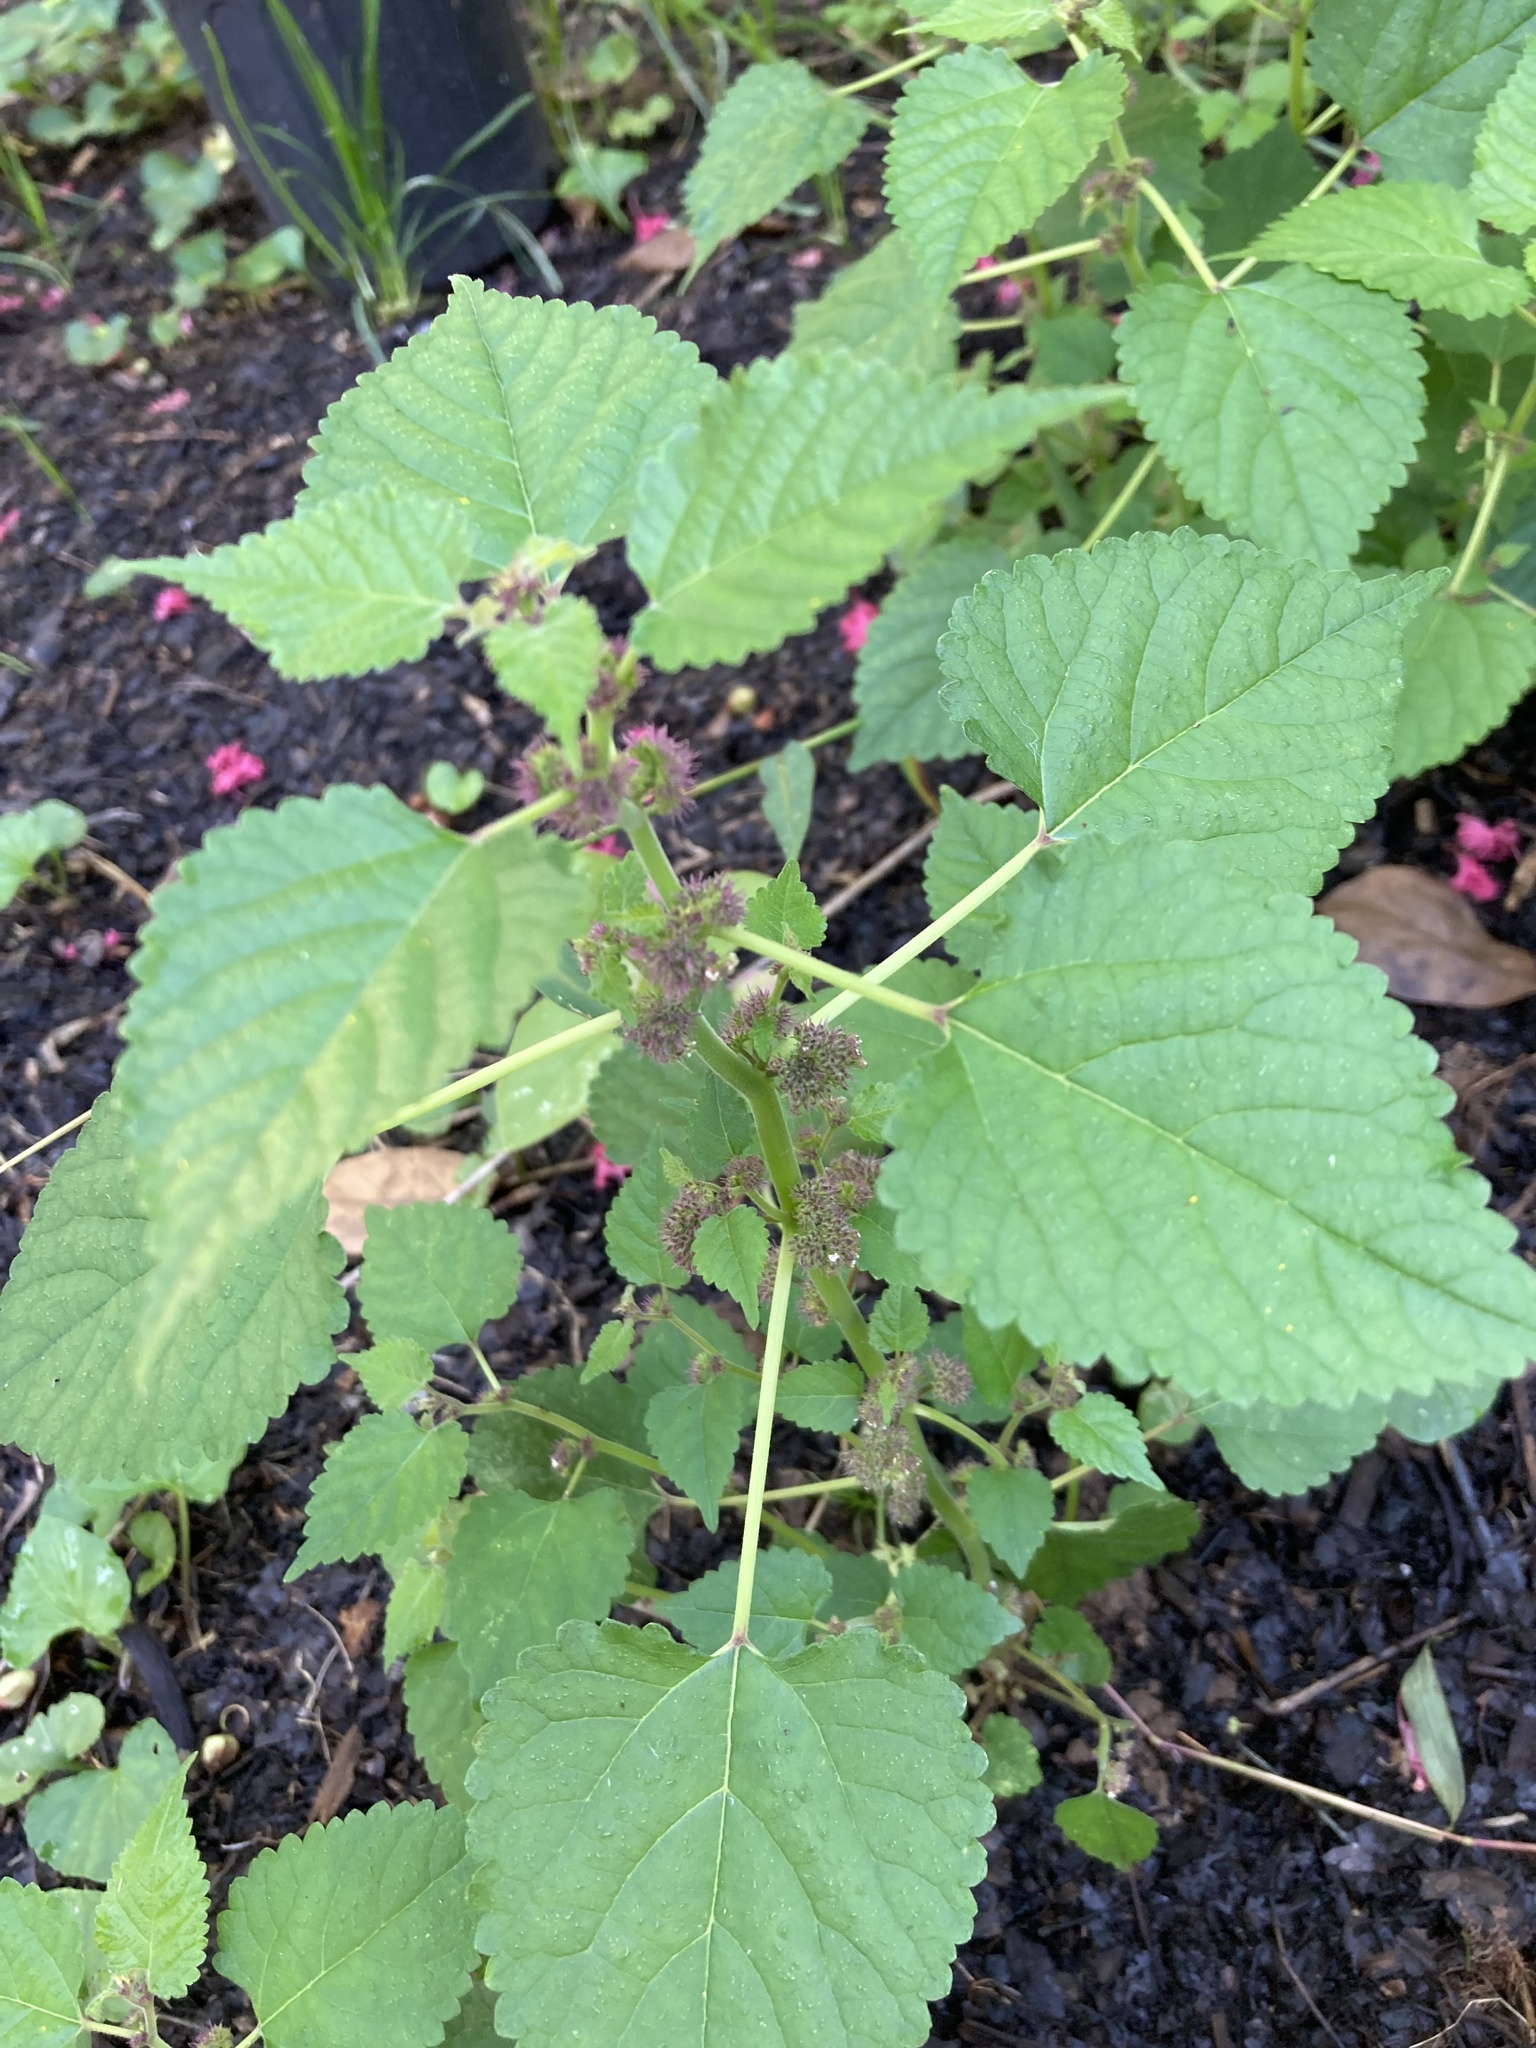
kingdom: Plantae
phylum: Tracheophyta
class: Magnoliopsida
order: Rosales
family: Moraceae
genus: Fatoua
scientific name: Fatoua villosa
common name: Hairy crabweed
